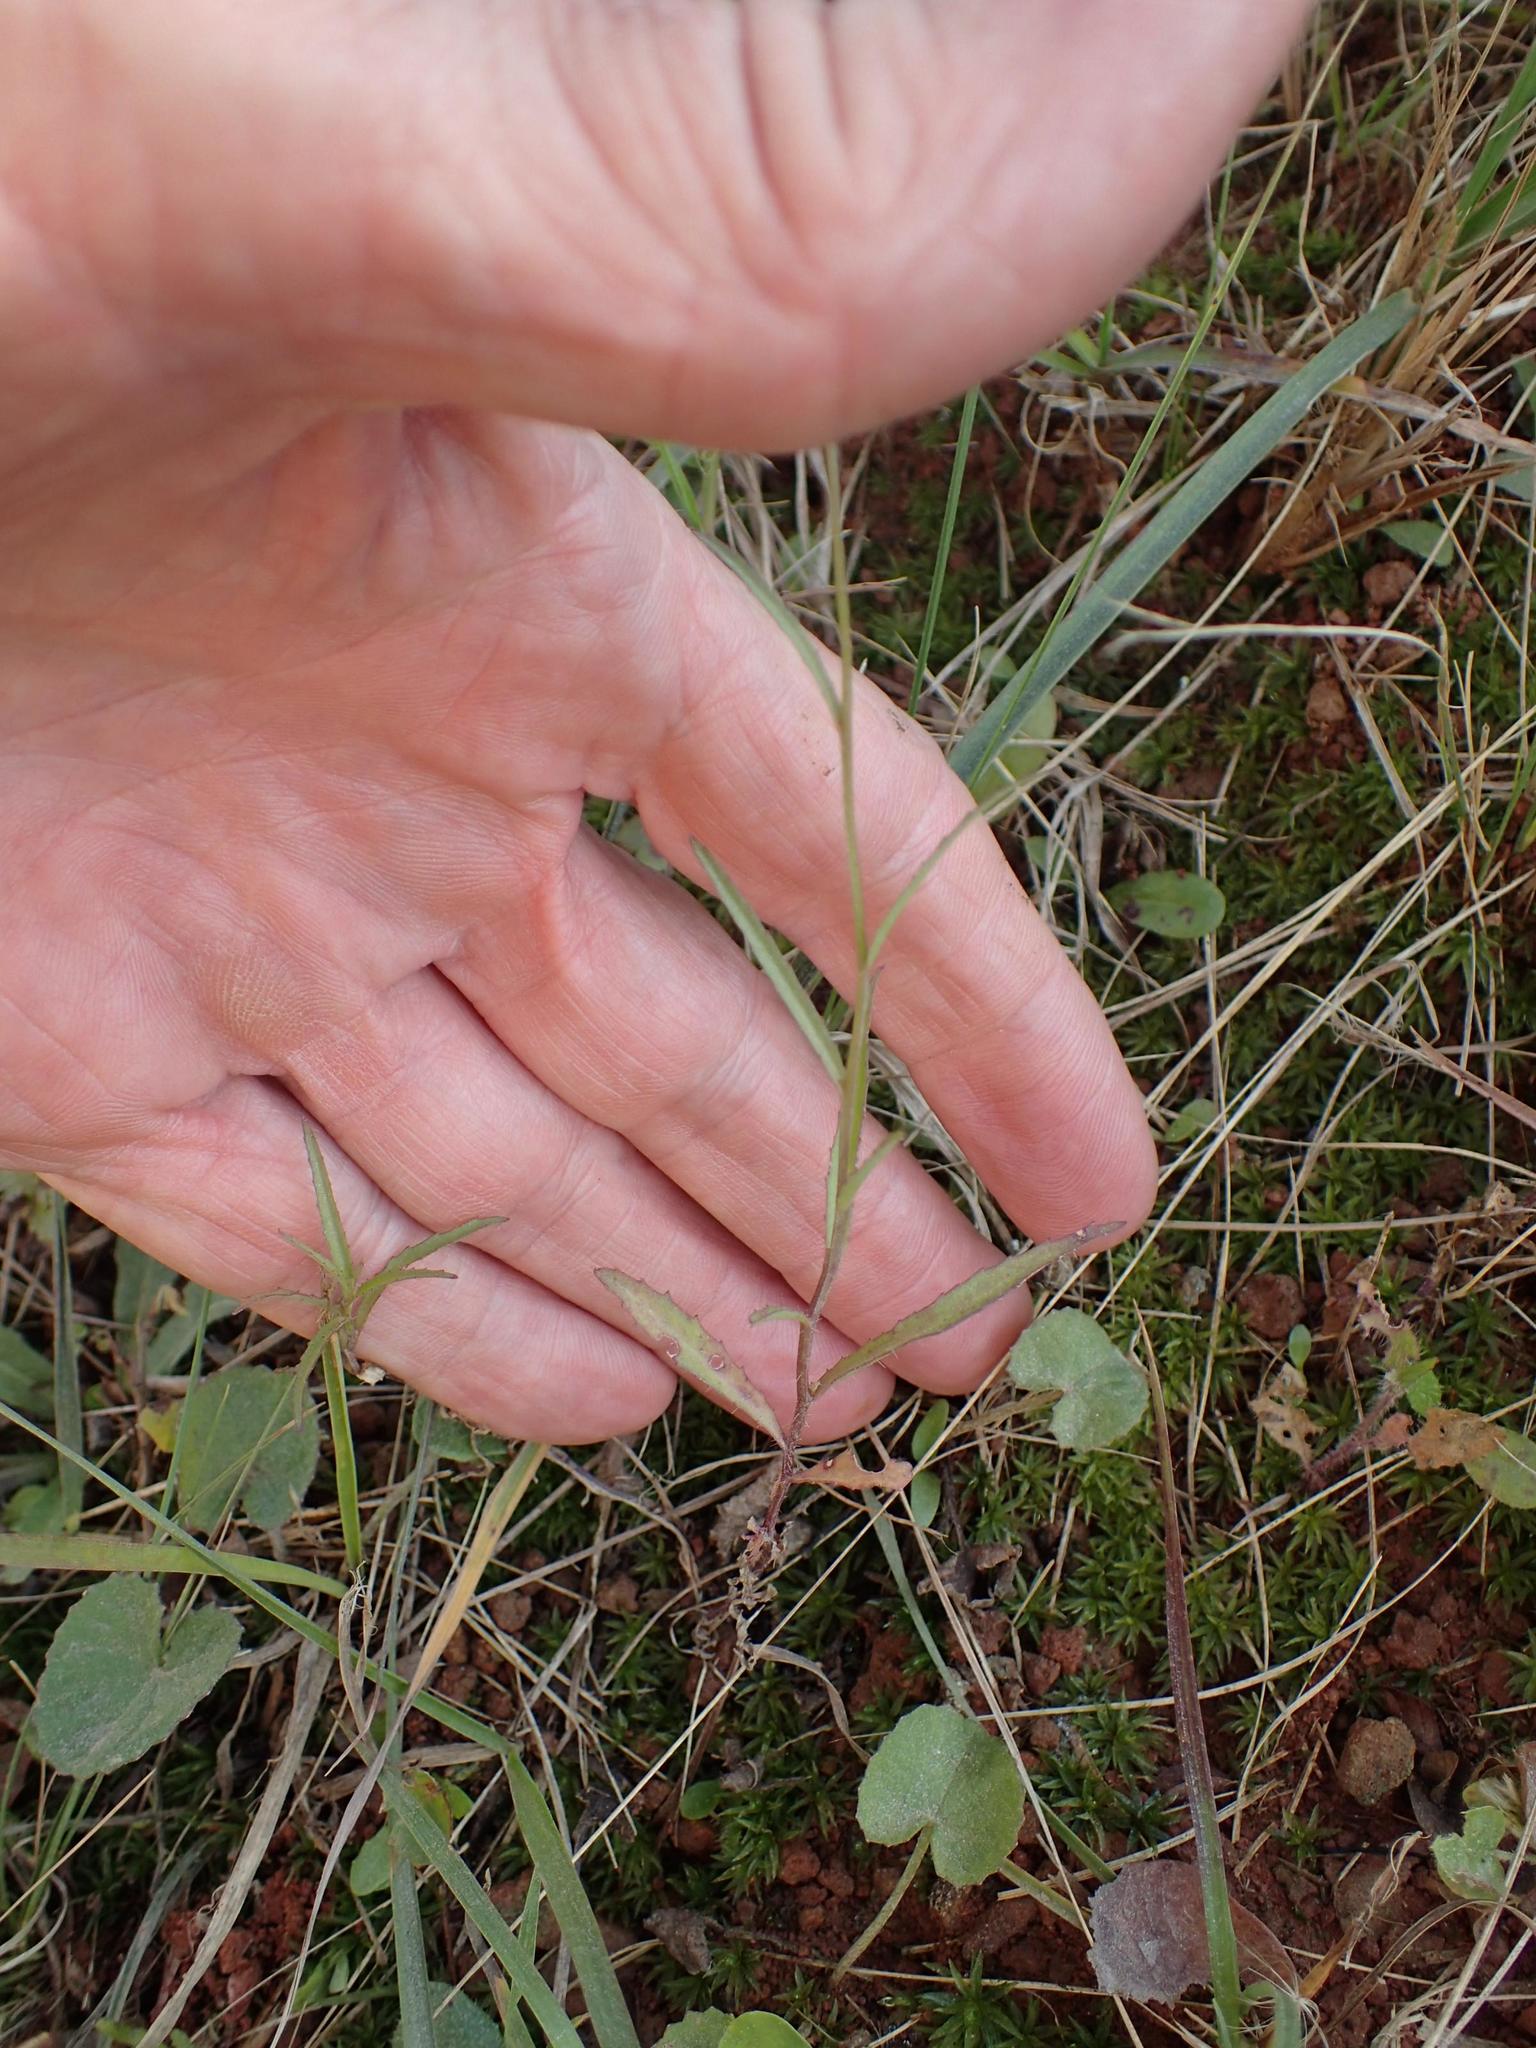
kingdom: Plantae
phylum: Tracheophyta
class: Magnoliopsida
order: Asterales
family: Campanulaceae
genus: Lobelia
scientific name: Lobelia flaccida
